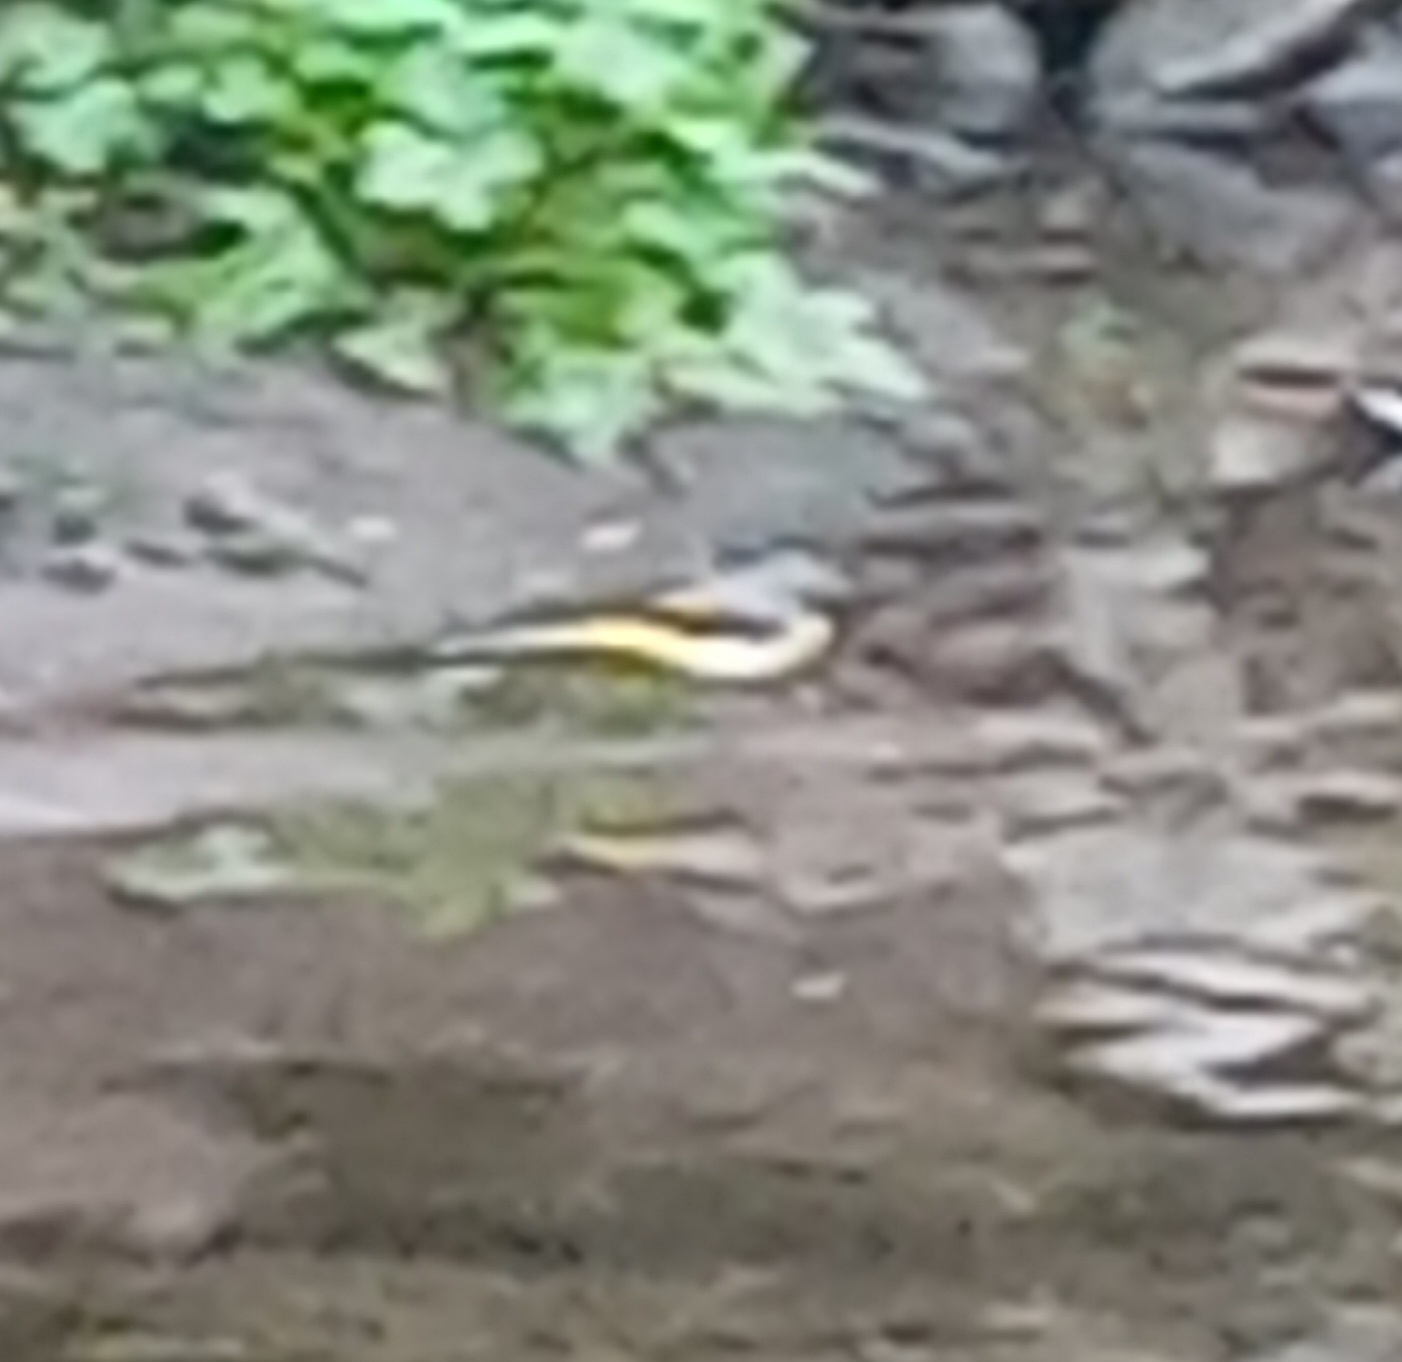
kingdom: Animalia
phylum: Chordata
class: Aves
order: Passeriformes
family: Motacillidae
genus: Motacilla
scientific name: Motacilla cinerea
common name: Grey wagtail
